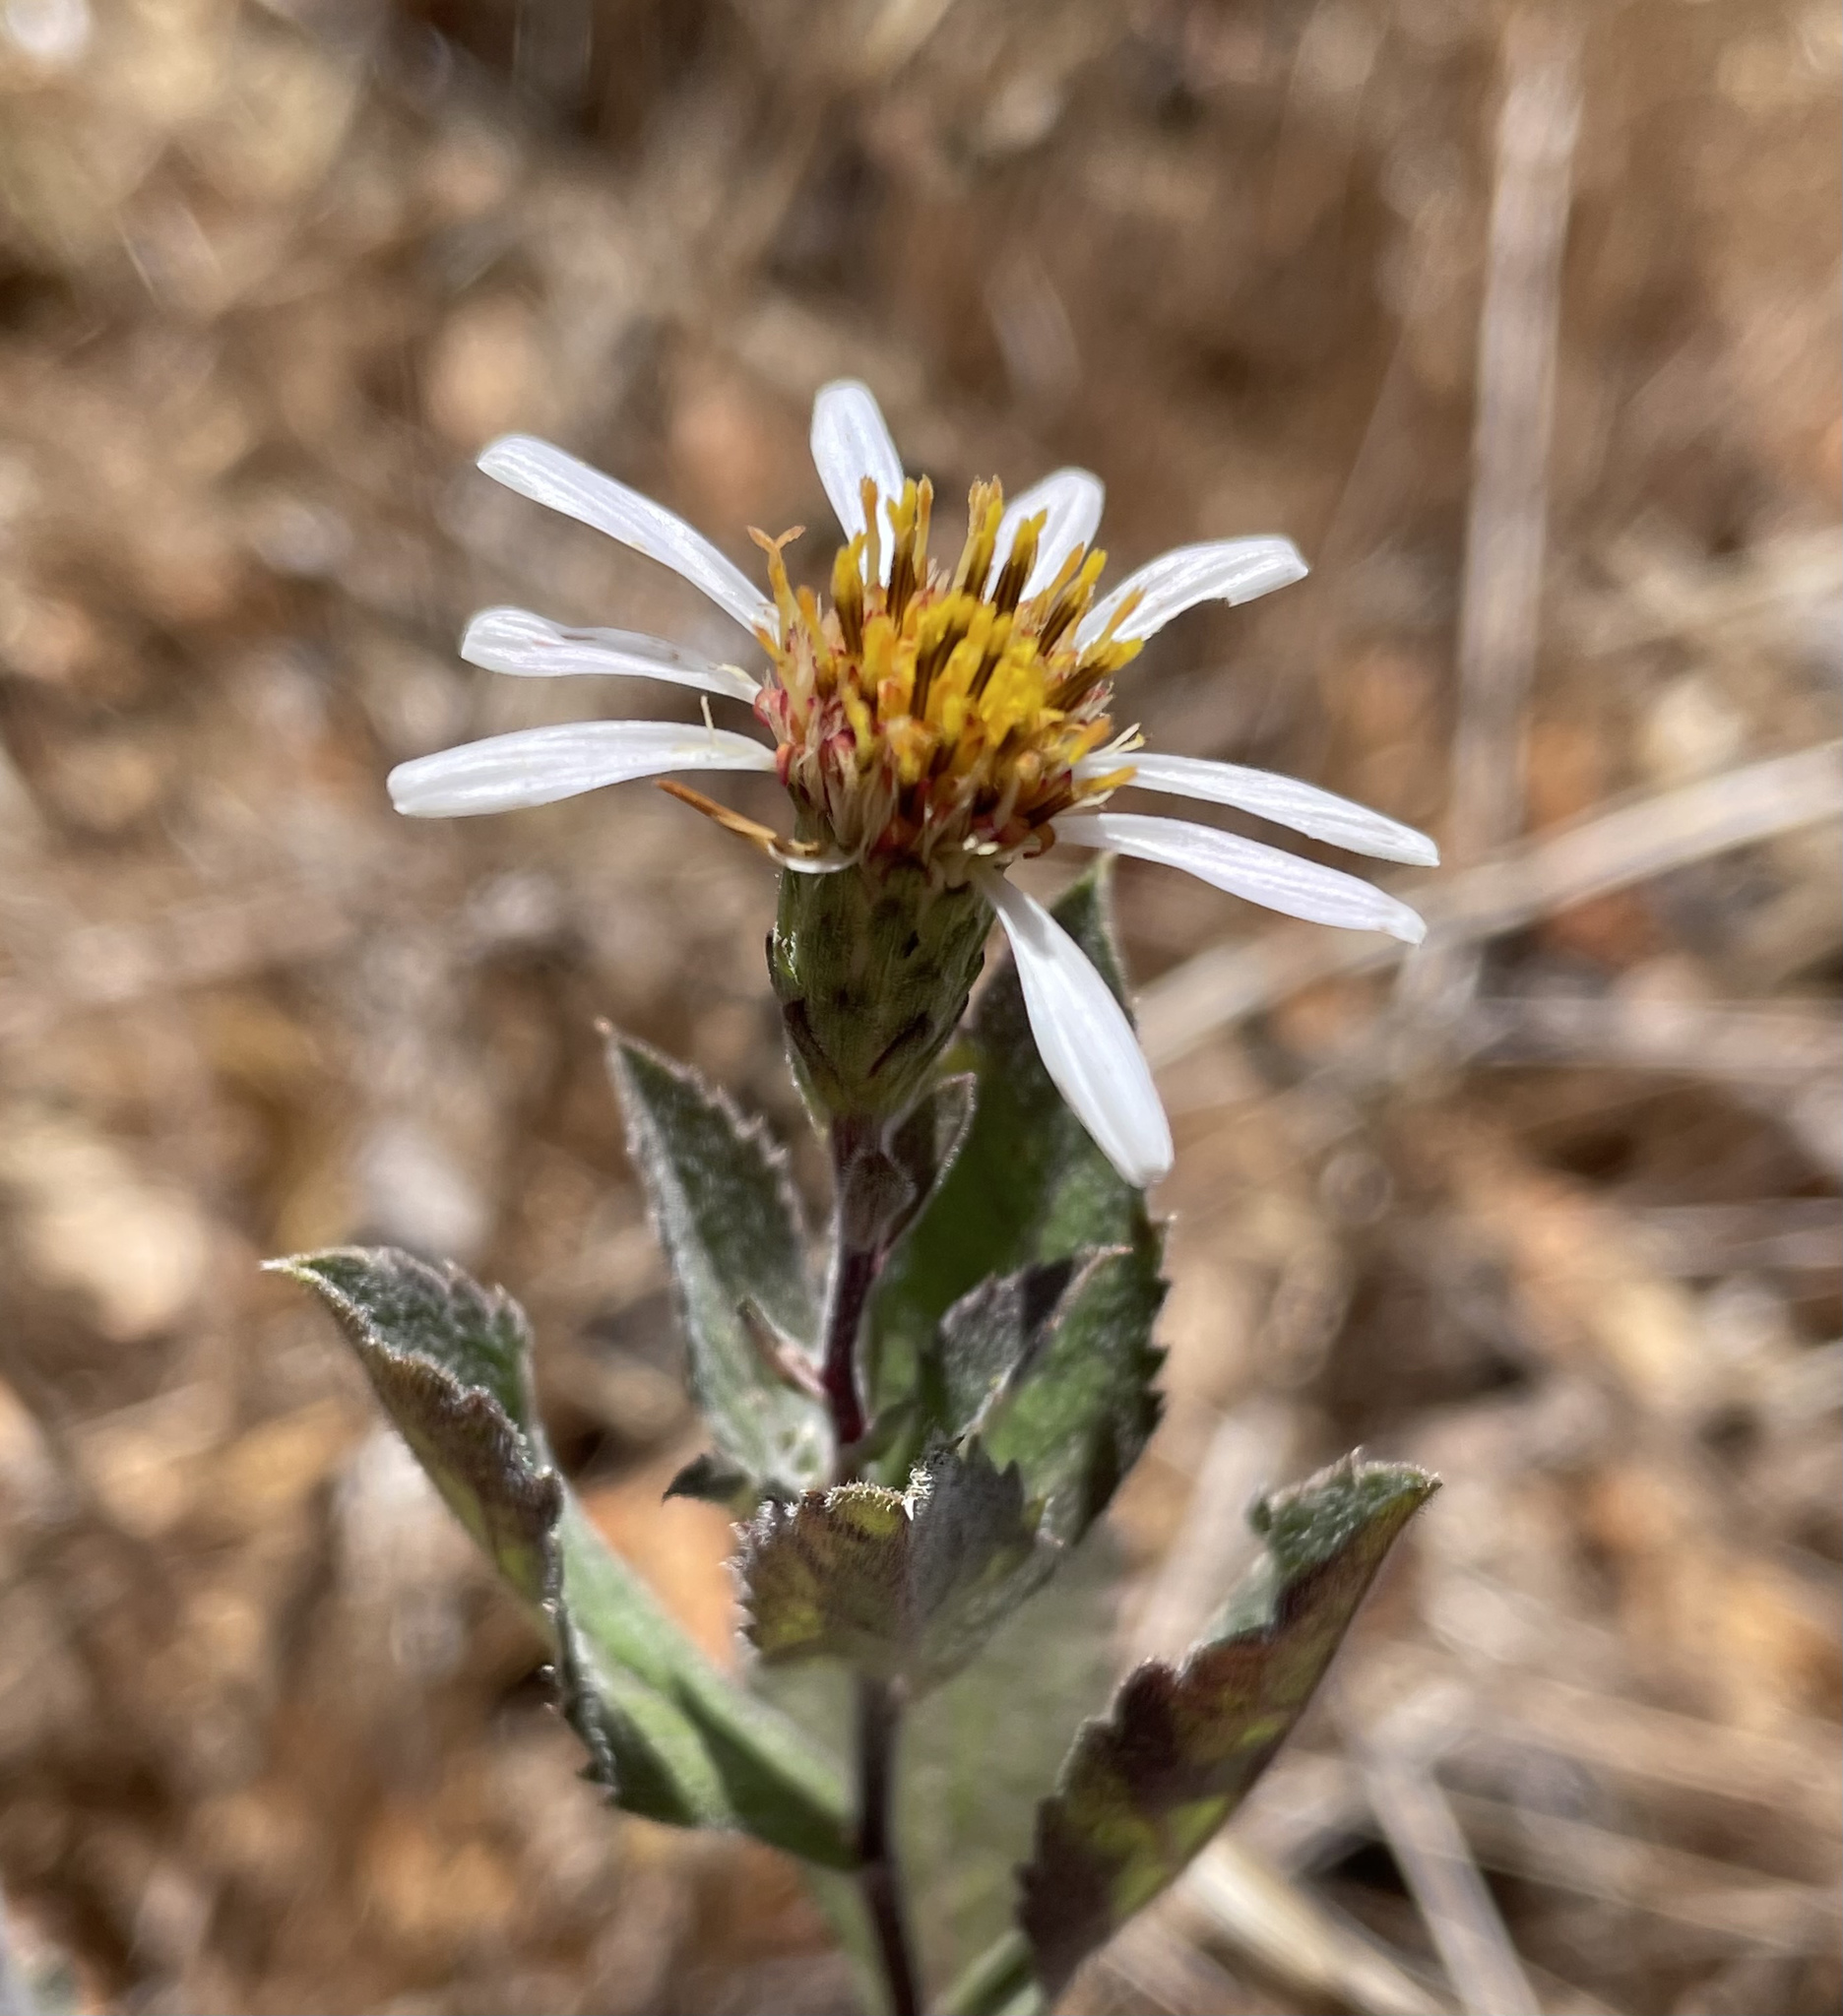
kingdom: Plantae
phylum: Tracheophyta
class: Magnoliopsida
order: Asterales
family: Asteraceae
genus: Eurybia
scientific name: Eurybia radulina
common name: Rough-leaved aster
